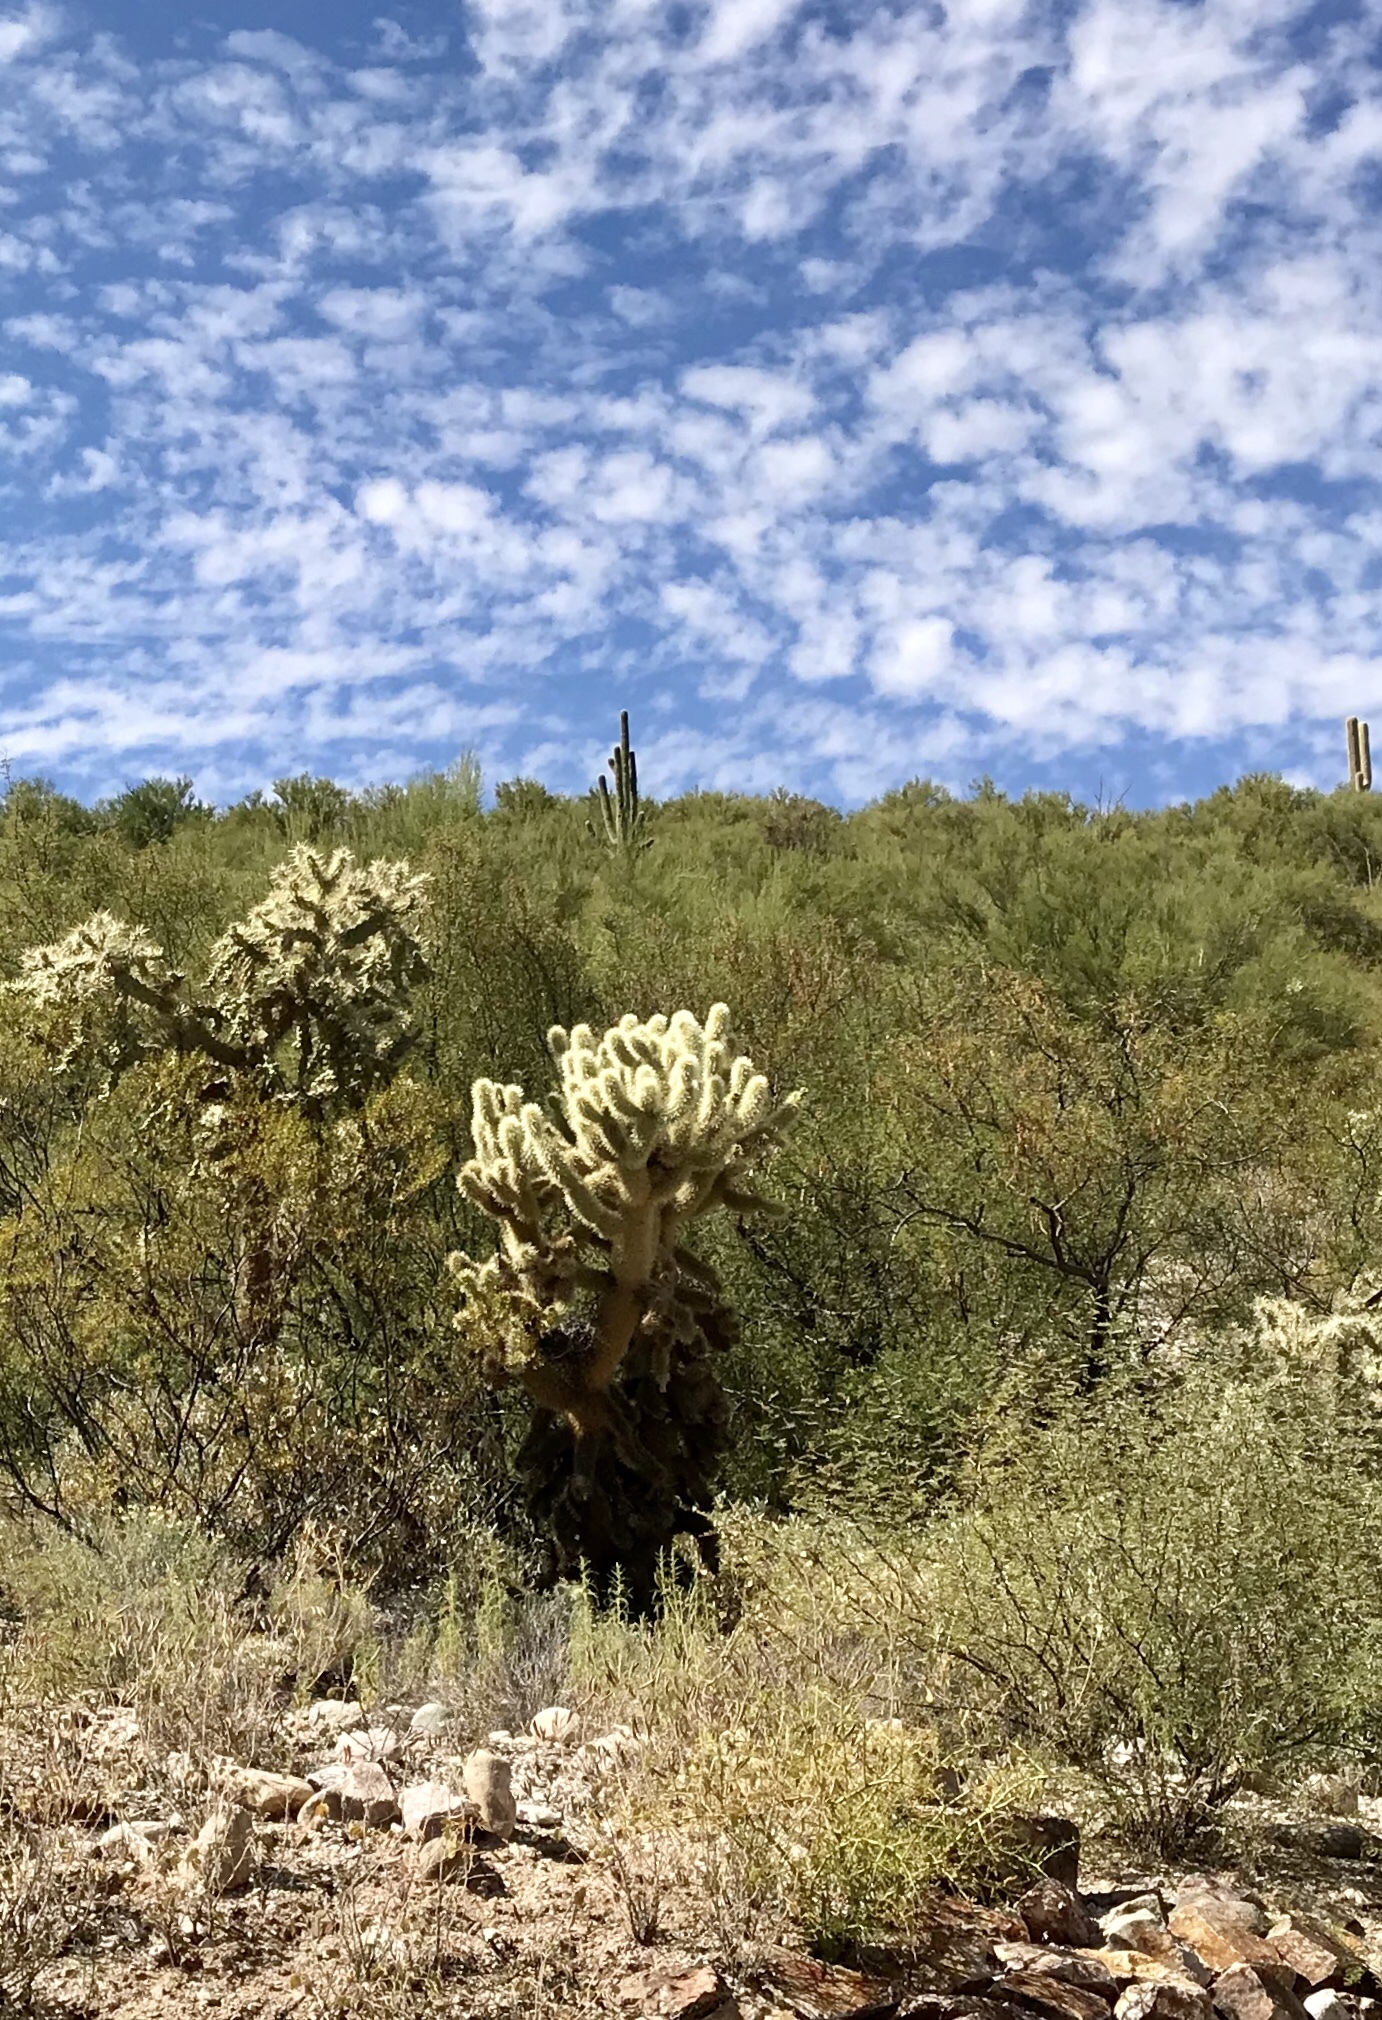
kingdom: Plantae
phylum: Tracheophyta
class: Magnoliopsida
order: Caryophyllales
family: Cactaceae
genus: Cylindropuntia
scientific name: Cylindropuntia fosbergii
